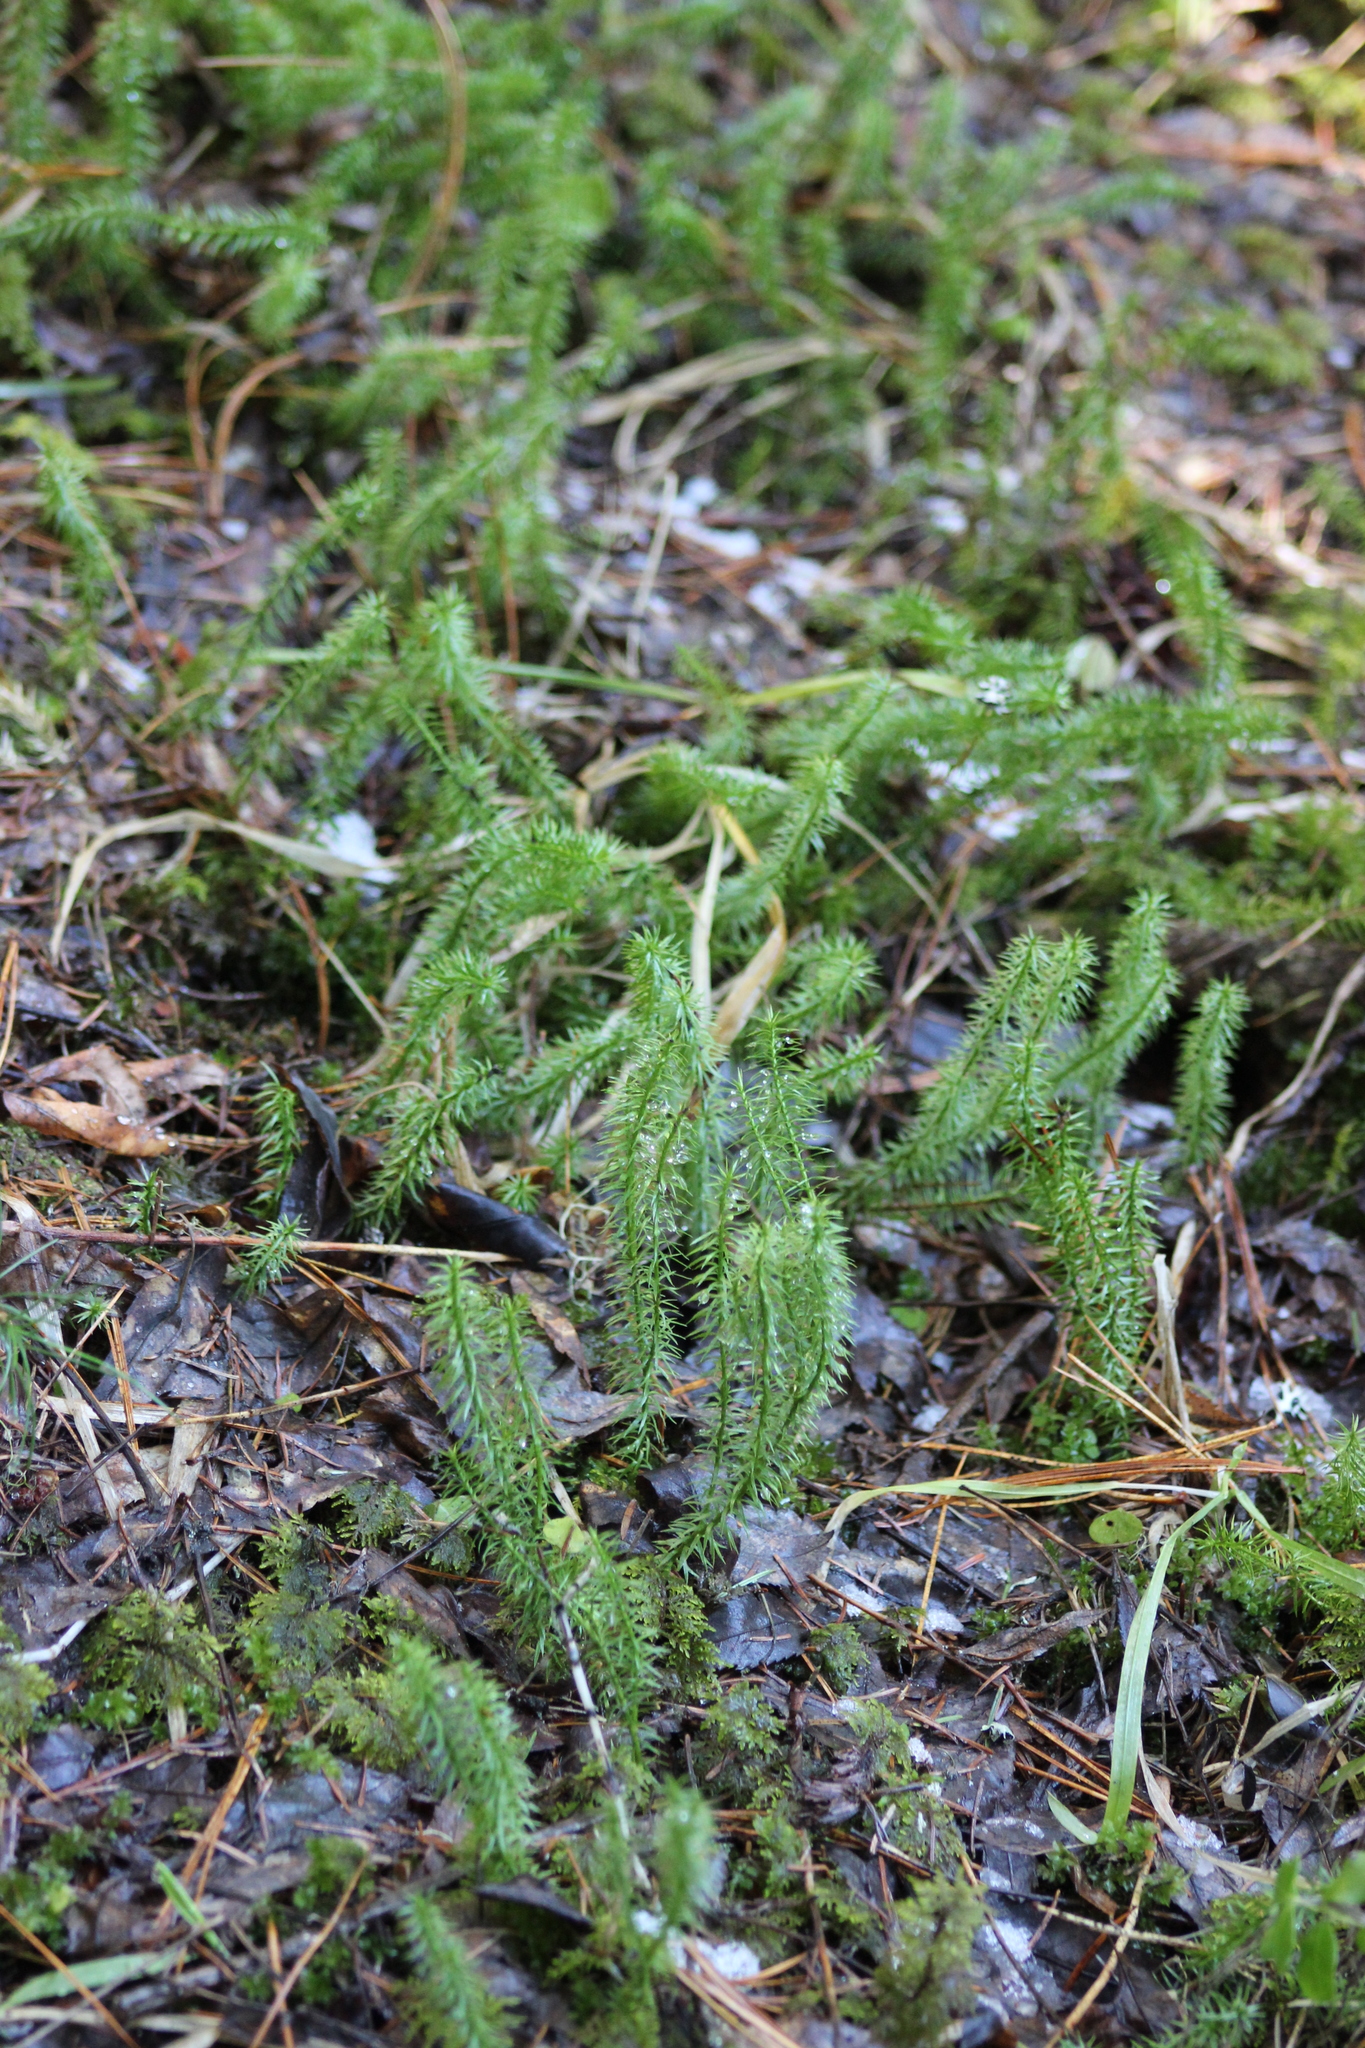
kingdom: Plantae
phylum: Tracheophyta
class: Lycopodiopsida
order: Lycopodiales
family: Lycopodiaceae
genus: Spinulum
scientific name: Spinulum annotinum
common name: Interrupted club-moss
